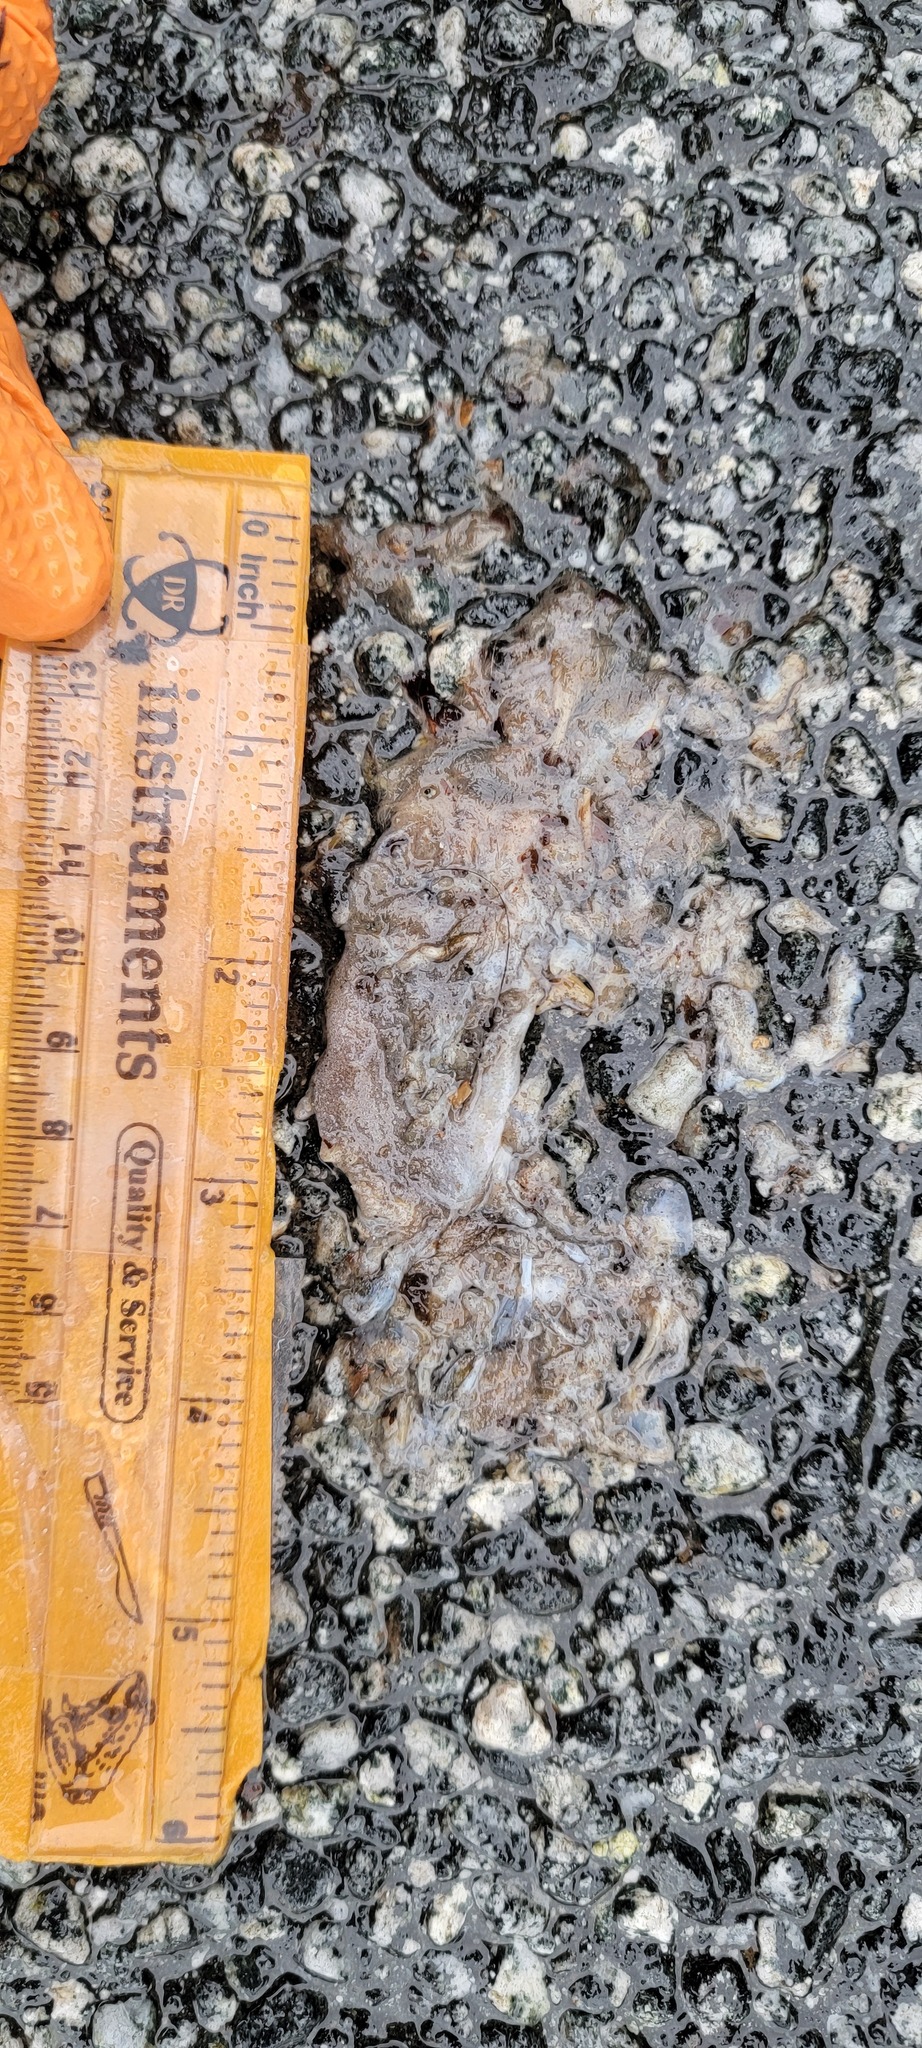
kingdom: Animalia
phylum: Chordata
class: Amphibia
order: Caudata
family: Salamandridae
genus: Taricha
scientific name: Taricha
